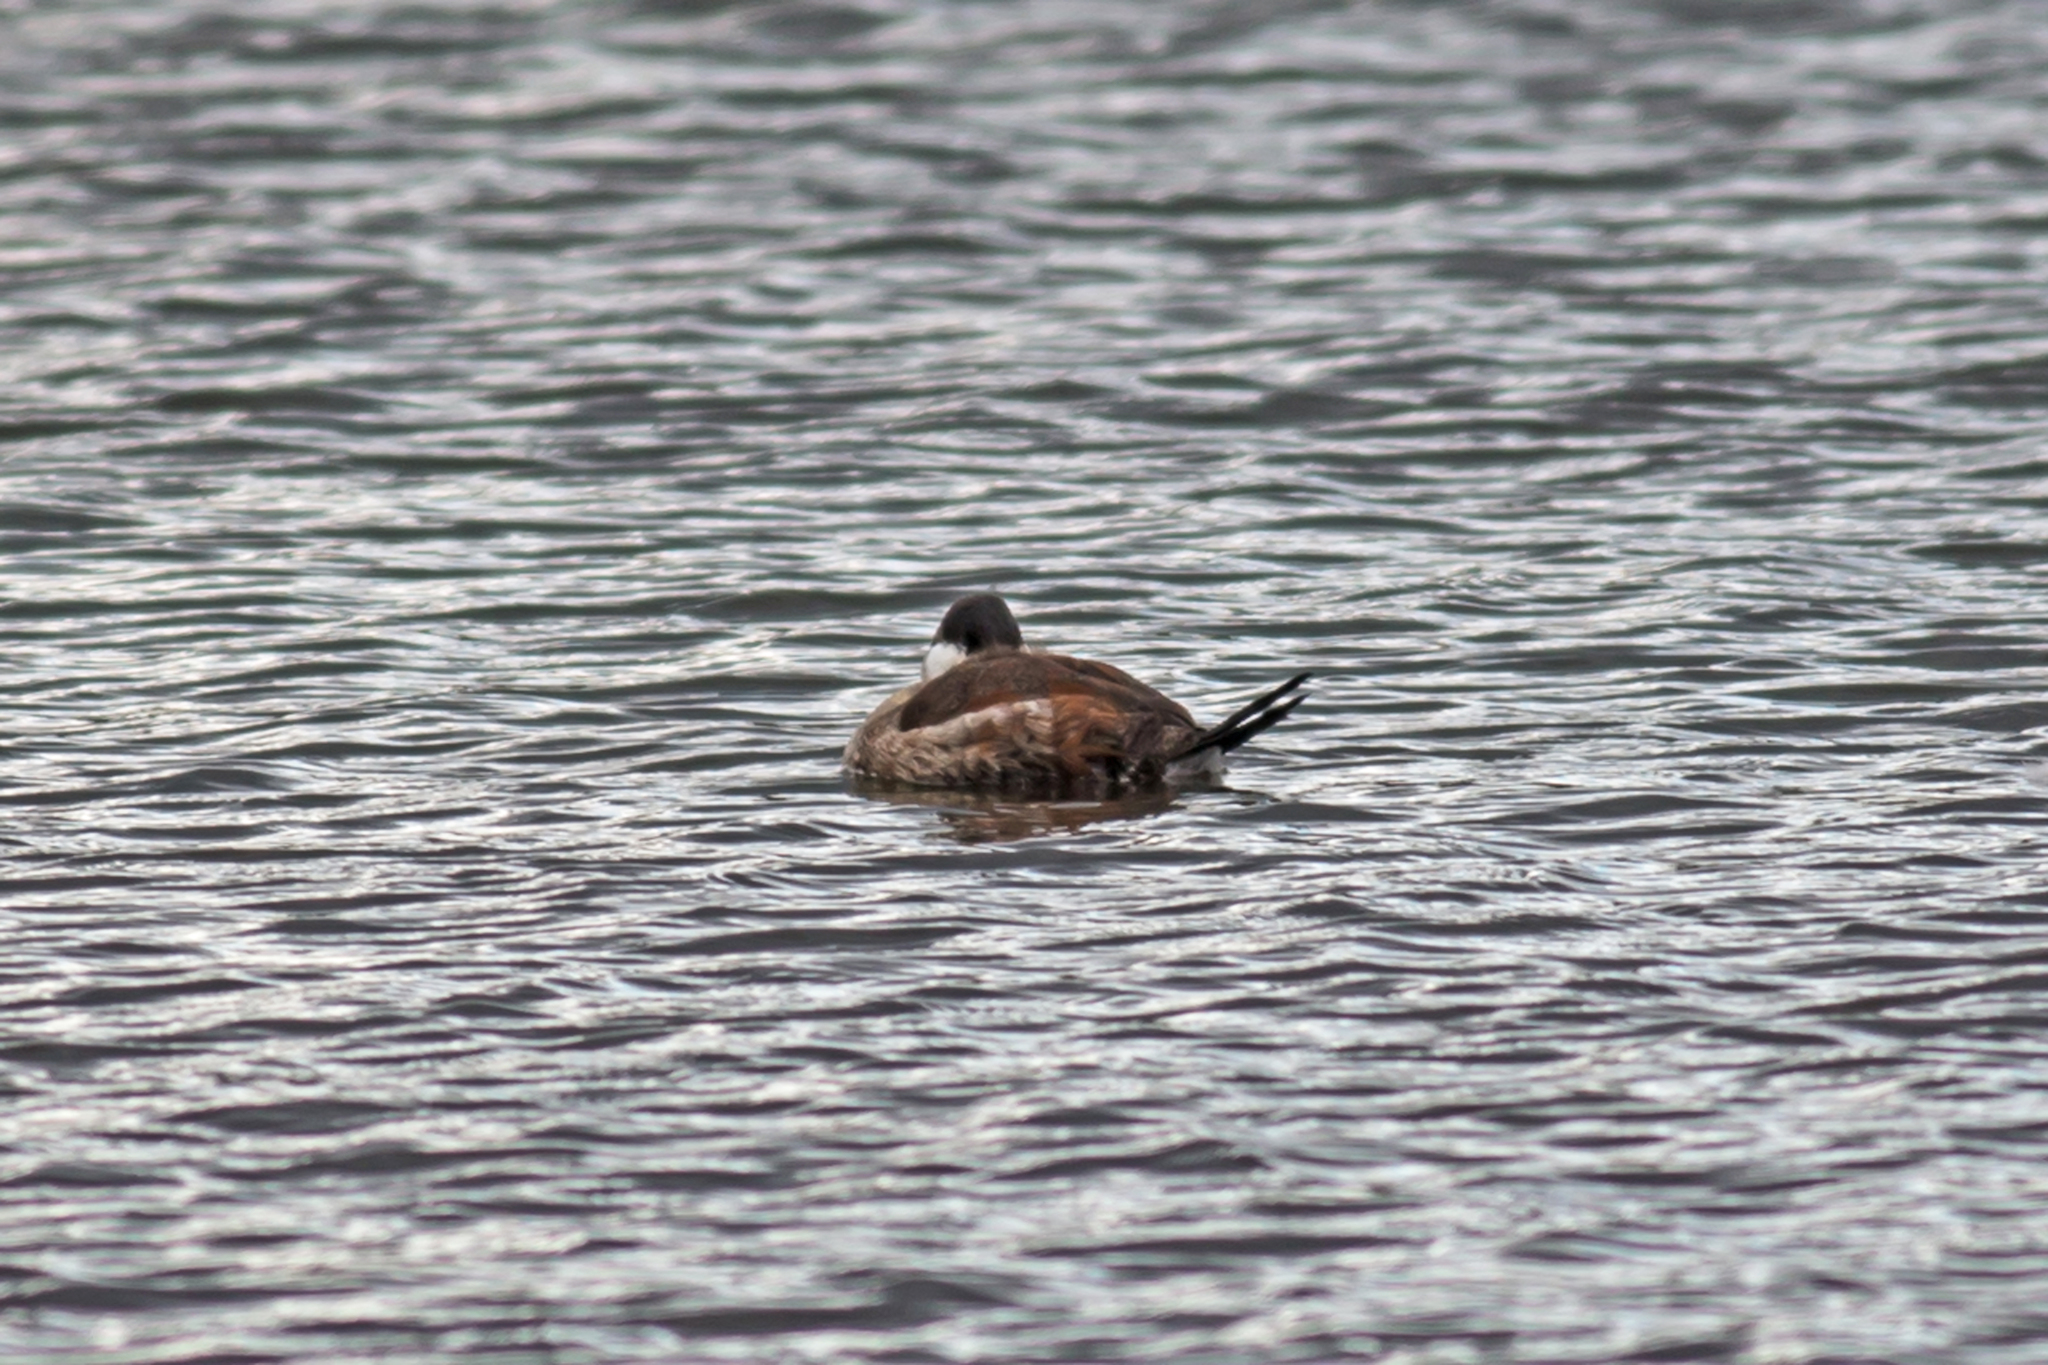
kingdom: Animalia
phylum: Chordata
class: Aves
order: Anseriformes
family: Anatidae
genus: Oxyura
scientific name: Oxyura jamaicensis
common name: Ruddy duck
